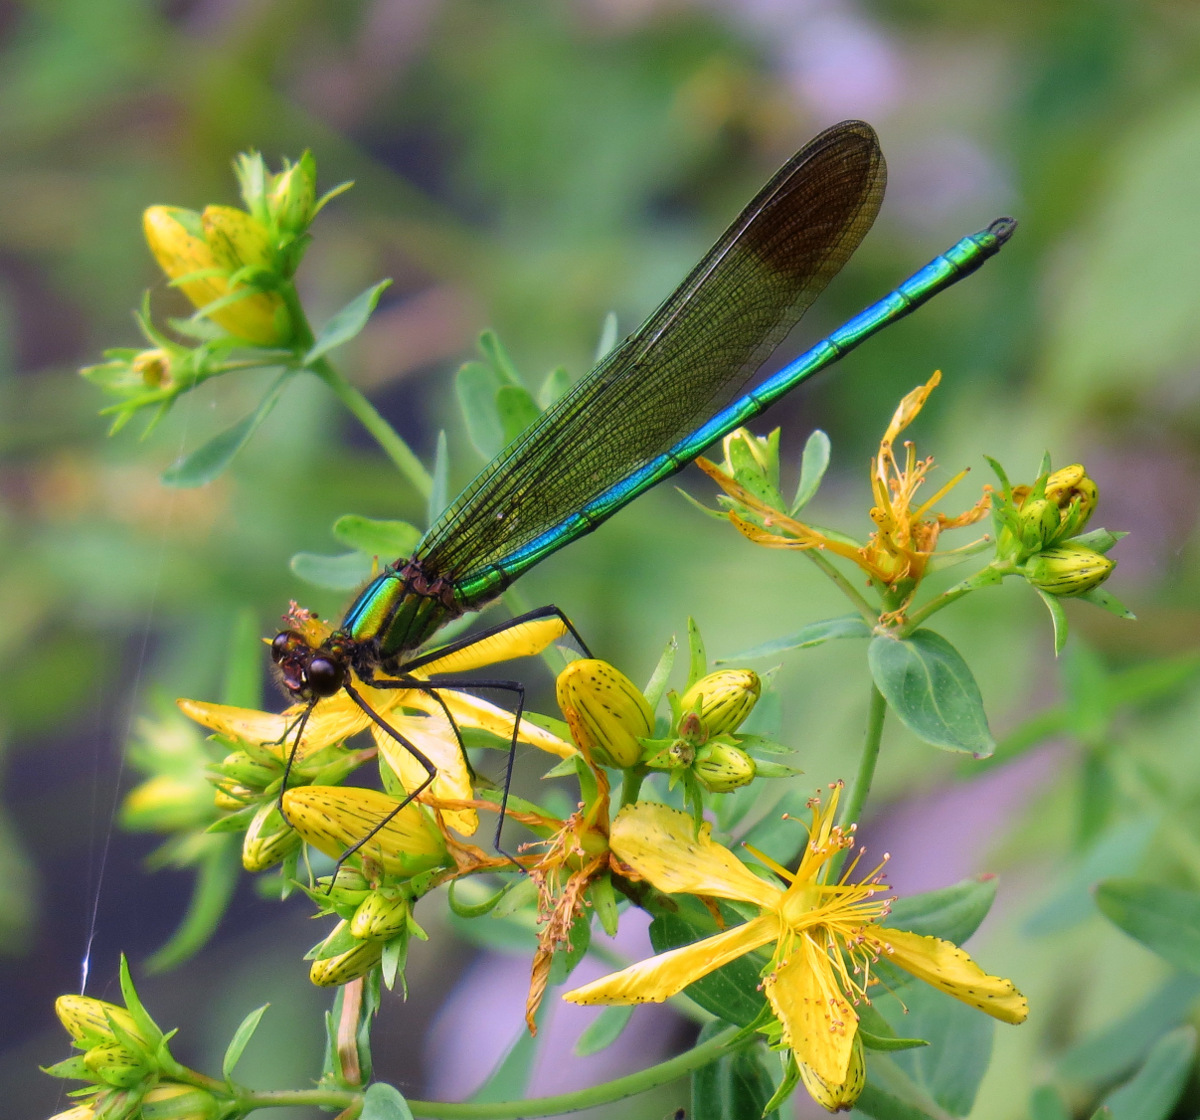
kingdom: Animalia
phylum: Arthropoda
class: Insecta
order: Odonata
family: Calopterygidae
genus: Calopteryx
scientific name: Calopteryx amata
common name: Superb jewelwing
